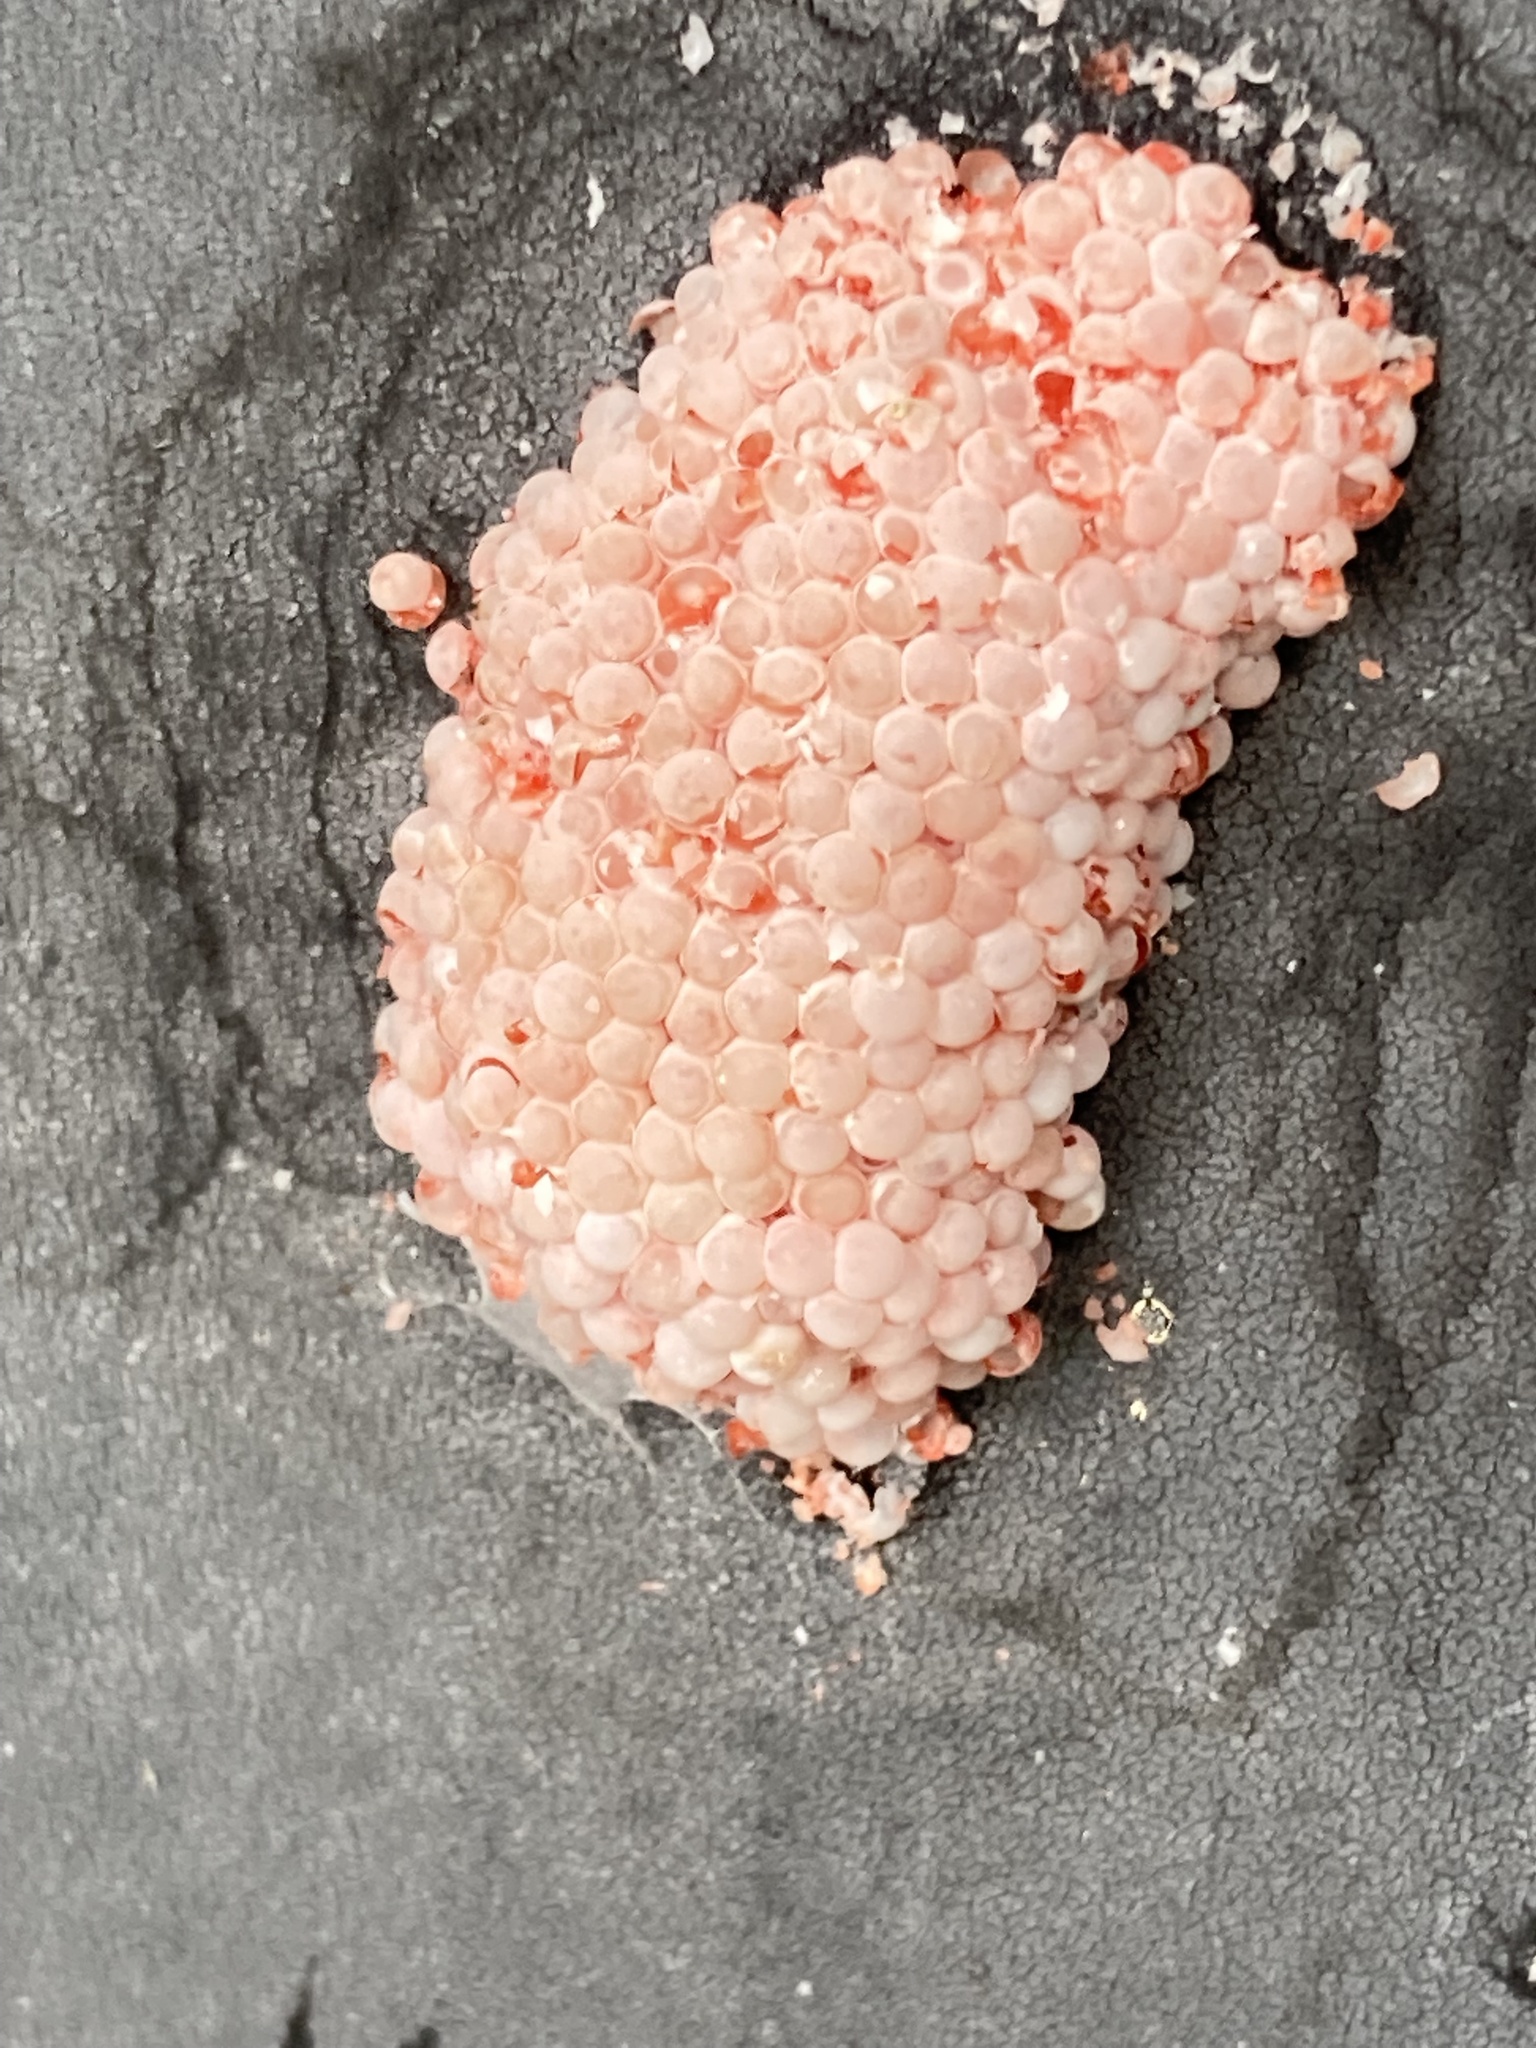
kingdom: Animalia
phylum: Mollusca
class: Gastropoda
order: Architaenioglossa
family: Ampullariidae
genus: Pomacea
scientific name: Pomacea maculata
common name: Giant applesnail
